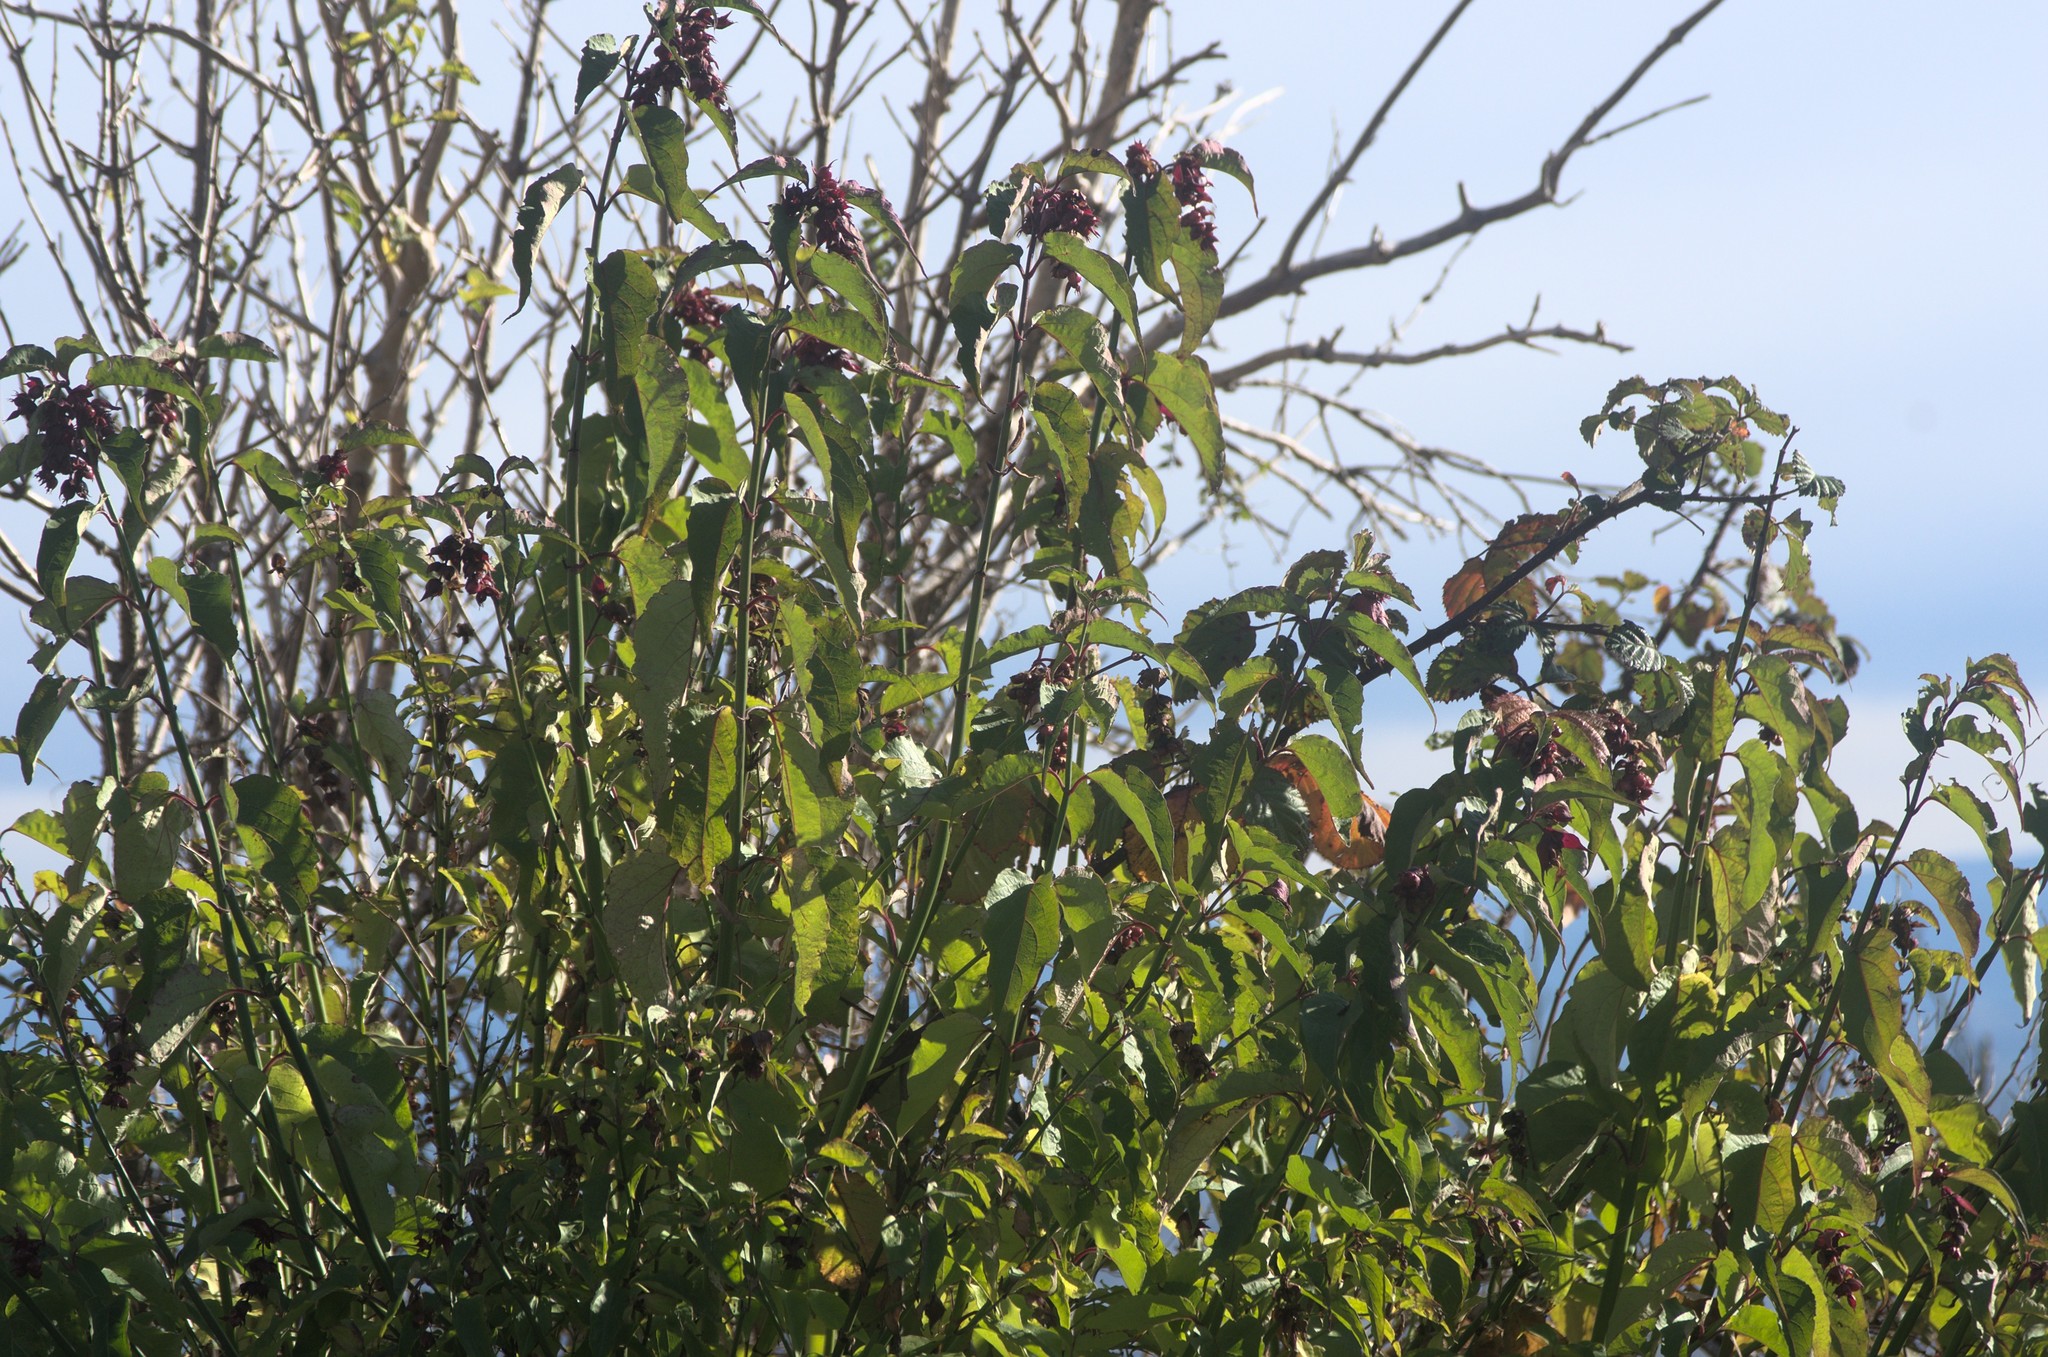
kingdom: Plantae
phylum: Tracheophyta
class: Magnoliopsida
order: Dipsacales
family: Caprifoliaceae
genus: Leycesteria
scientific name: Leycesteria formosa
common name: Himalayan honeysuckle
